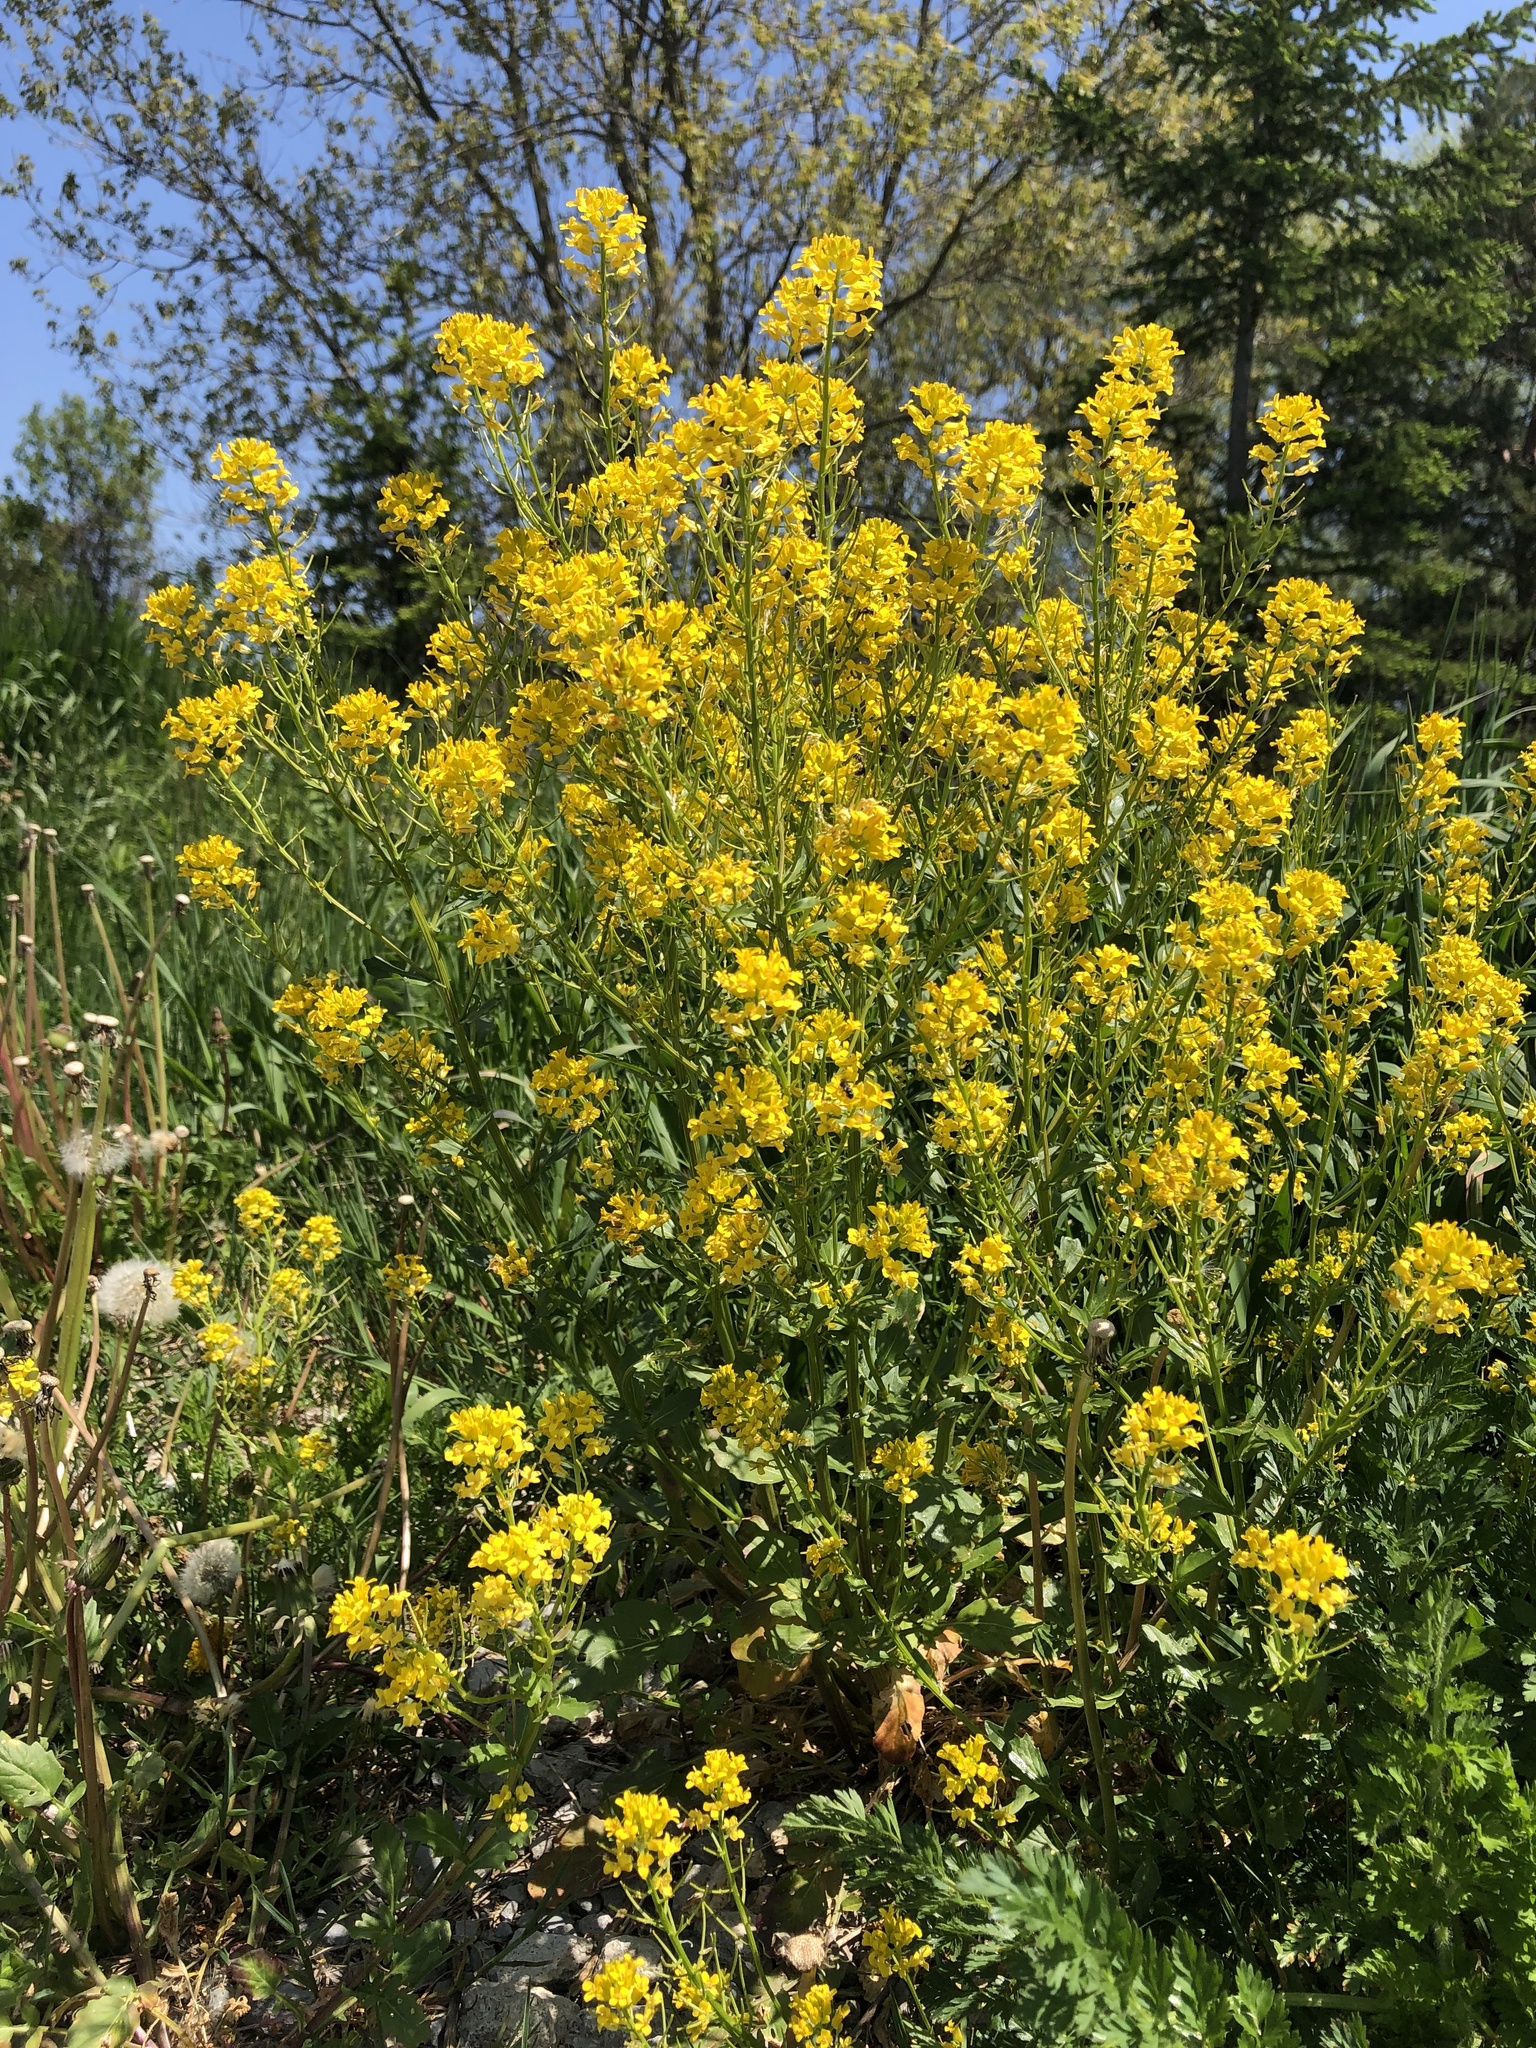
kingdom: Plantae
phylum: Tracheophyta
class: Magnoliopsida
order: Brassicales
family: Brassicaceae
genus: Barbarea
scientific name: Barbarea vulgaris
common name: Cressy-greens
